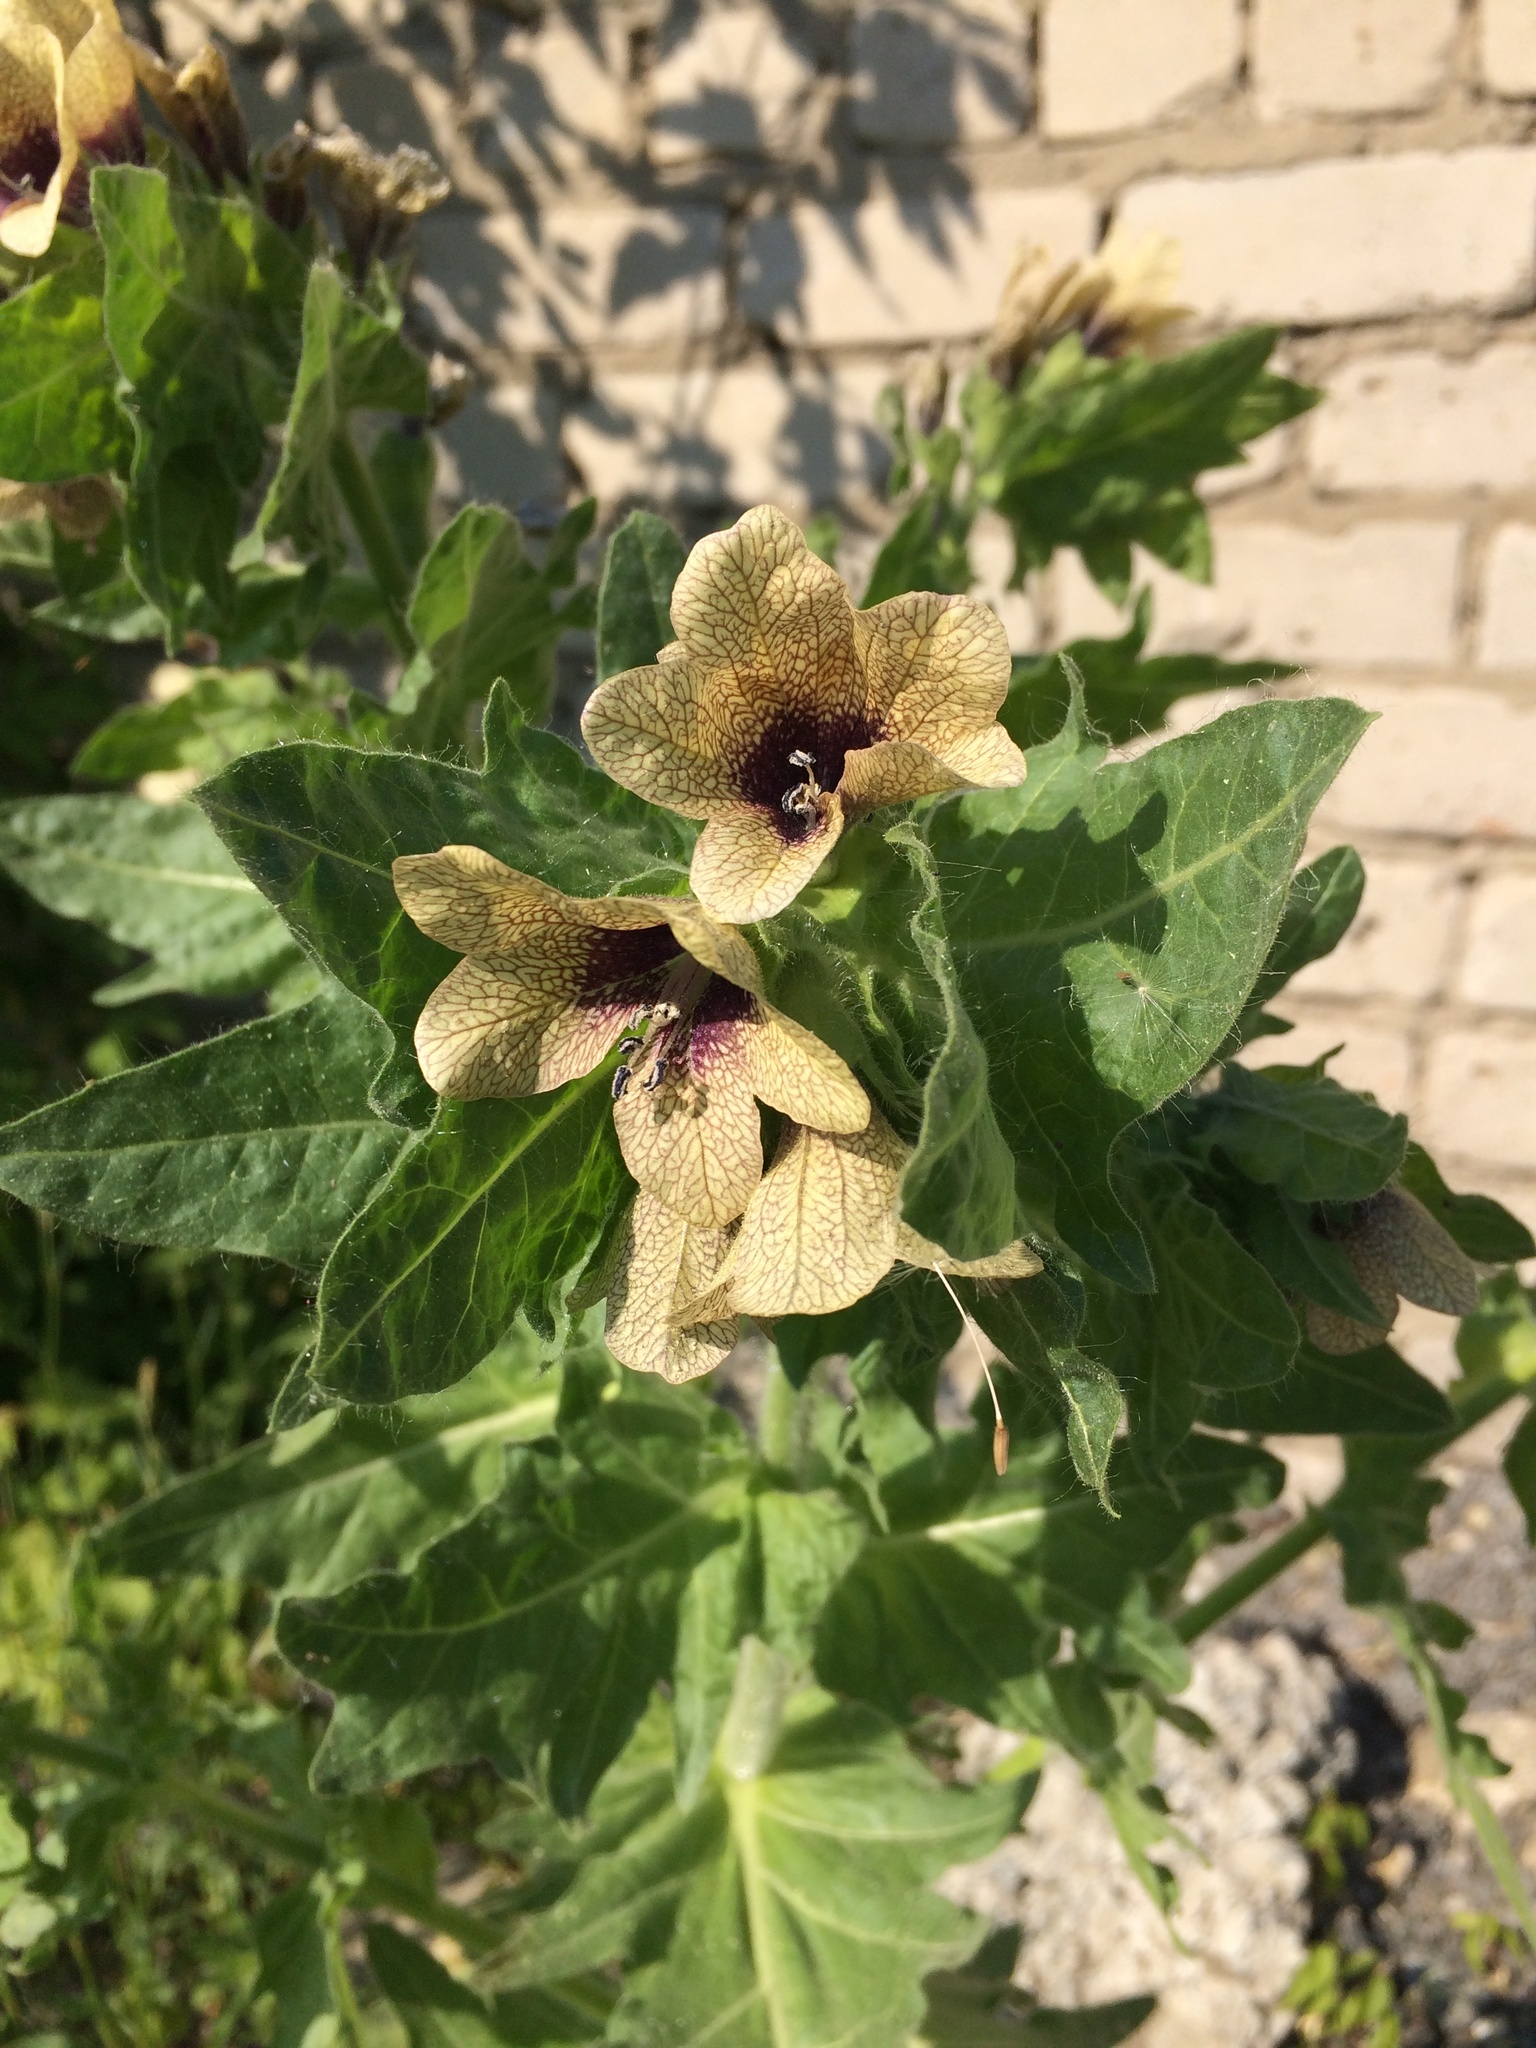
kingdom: Plantae
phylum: Tracheophyta
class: Magnoliopsida
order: Solanales
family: Solanaceae
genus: Hyoscyamus
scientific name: Hyoscyamus niger
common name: Henbane
